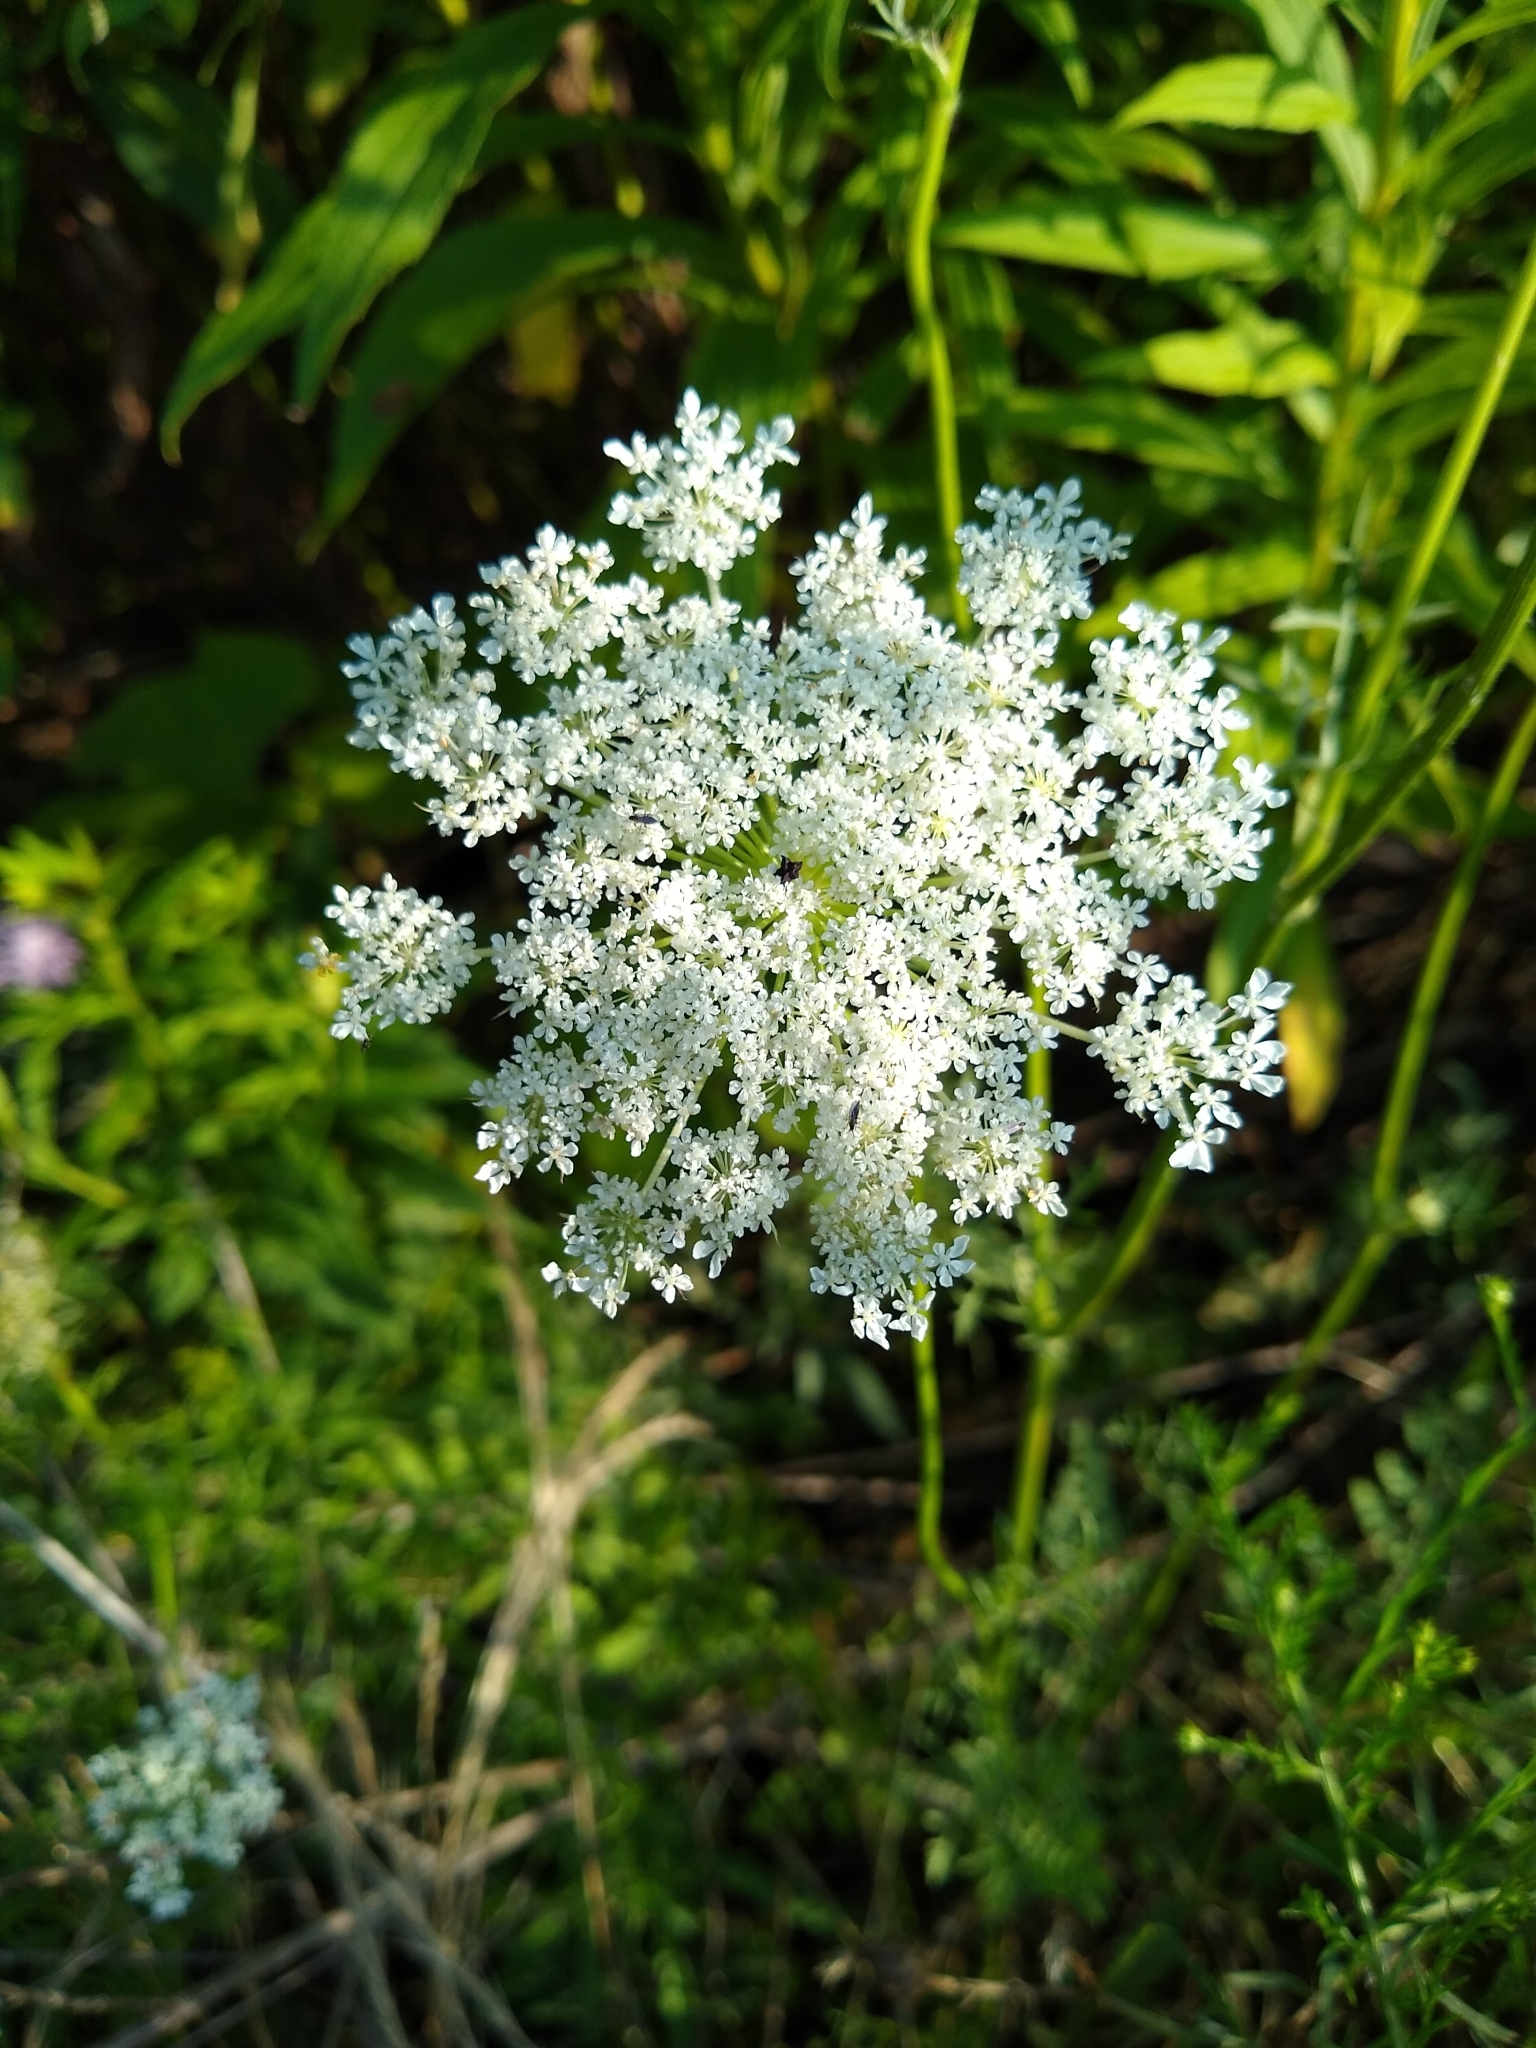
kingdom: Plantae
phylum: Tracheophyta
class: Magnoliopsida
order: Apiales
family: Apiaceae
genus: Daucus
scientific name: Daucus carota
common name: Wild carrot
